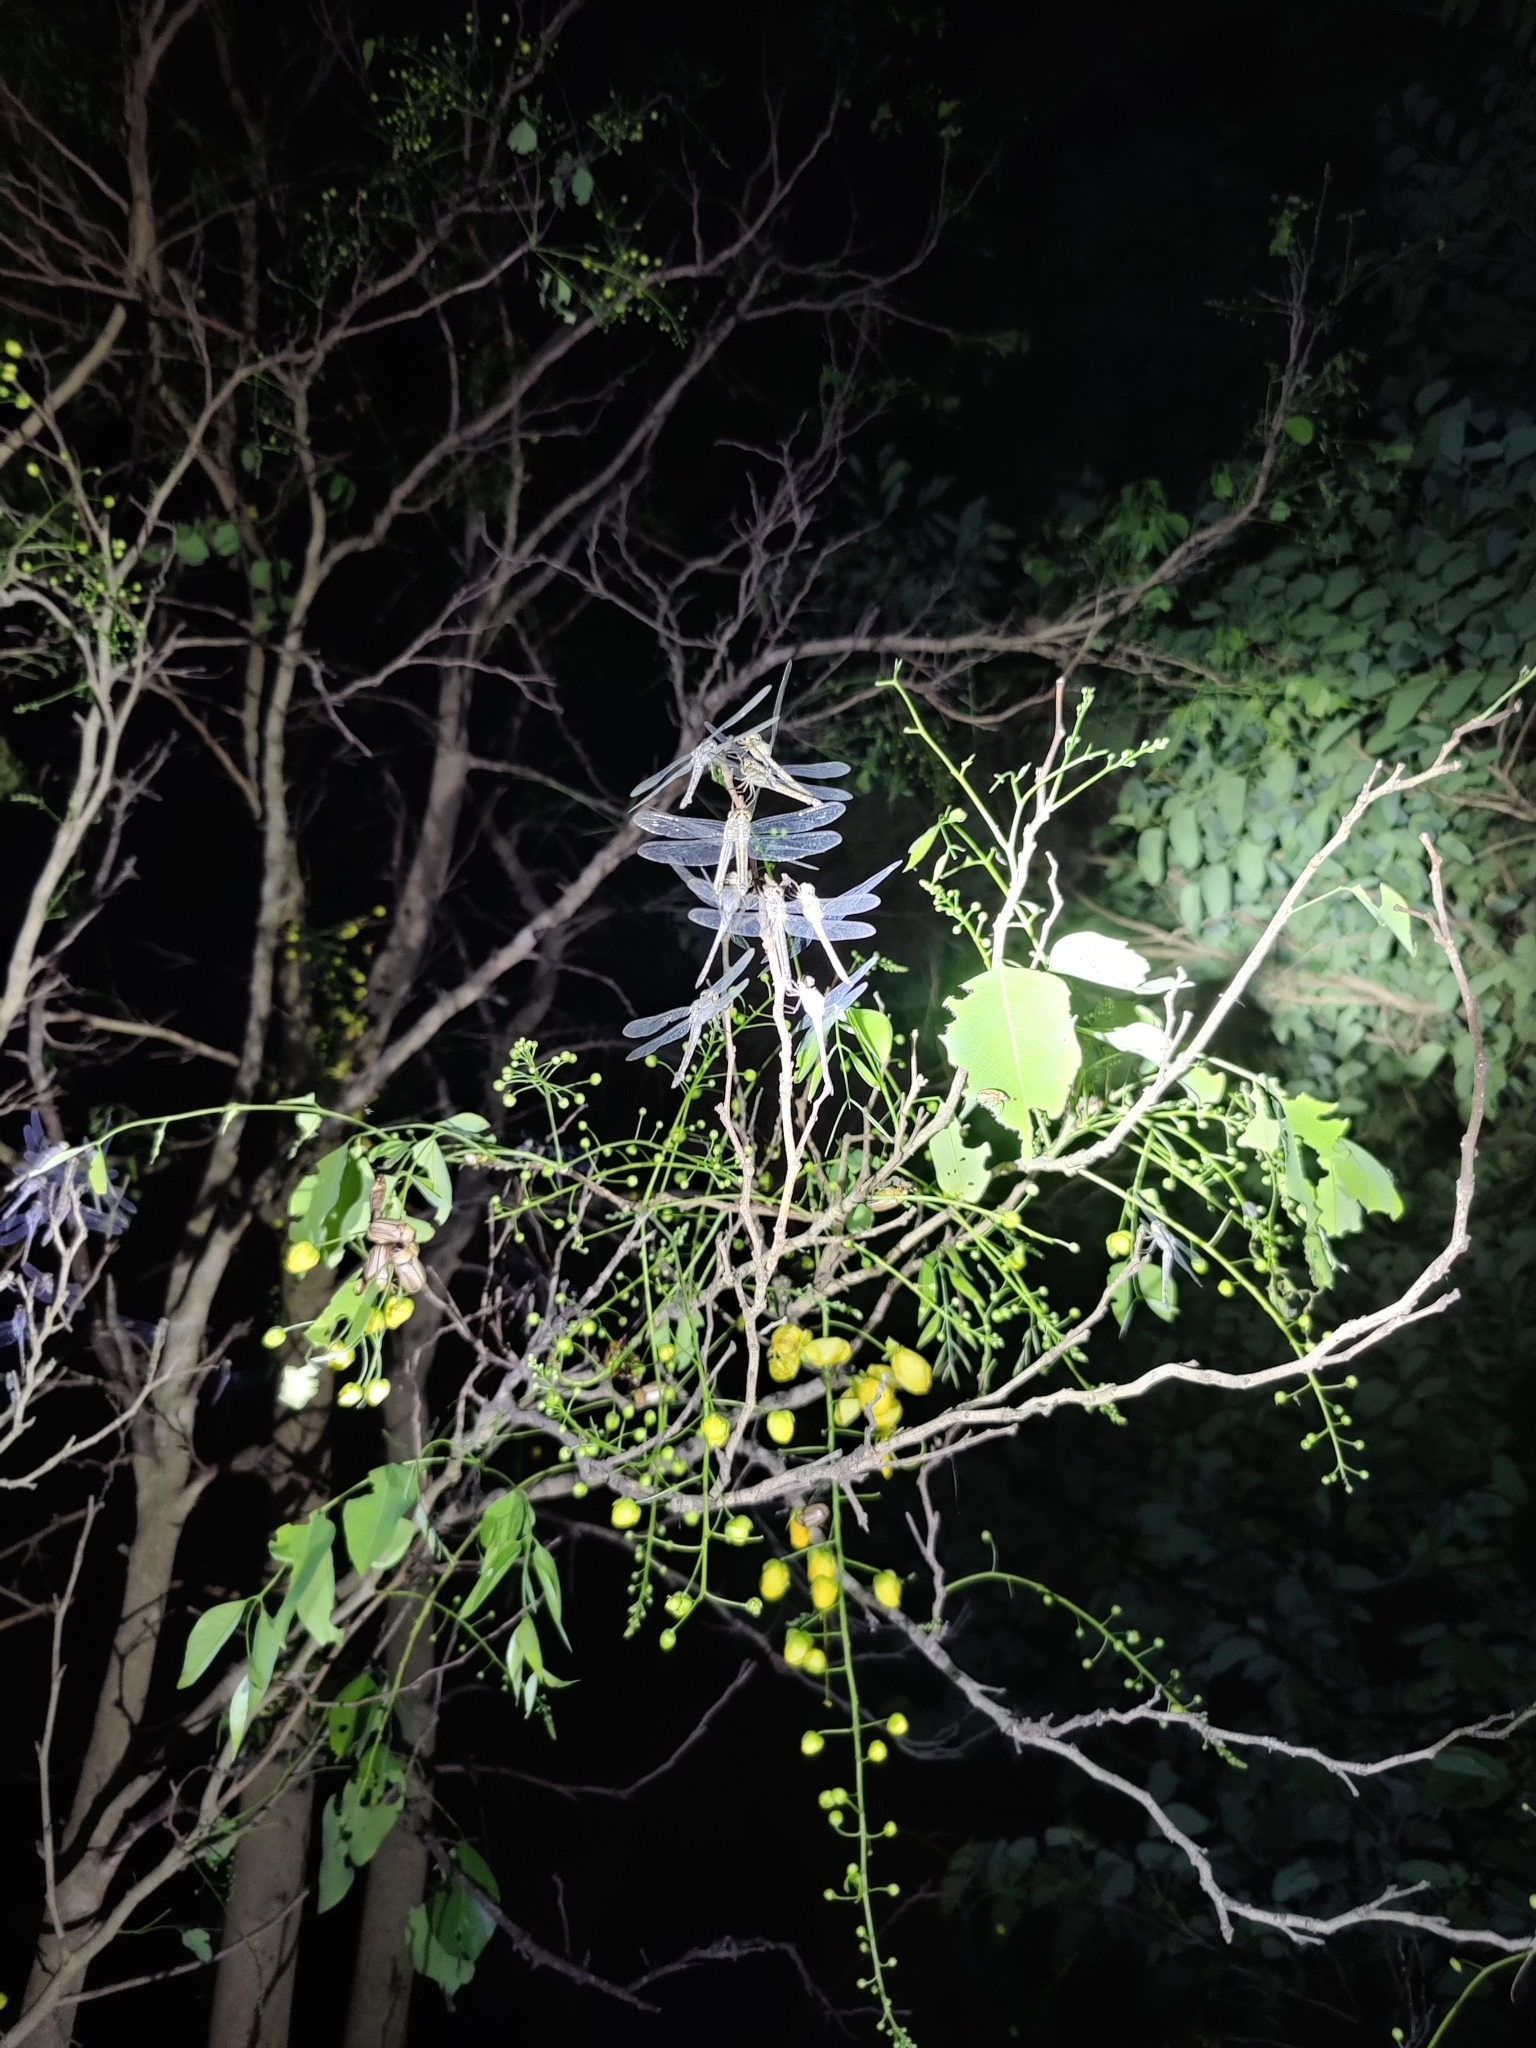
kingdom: Animalia
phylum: Arthropoda
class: Insecta
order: Odonata
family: Libellulidae
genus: Potamarcha
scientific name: Potamarcha congener
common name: Blue chaser
